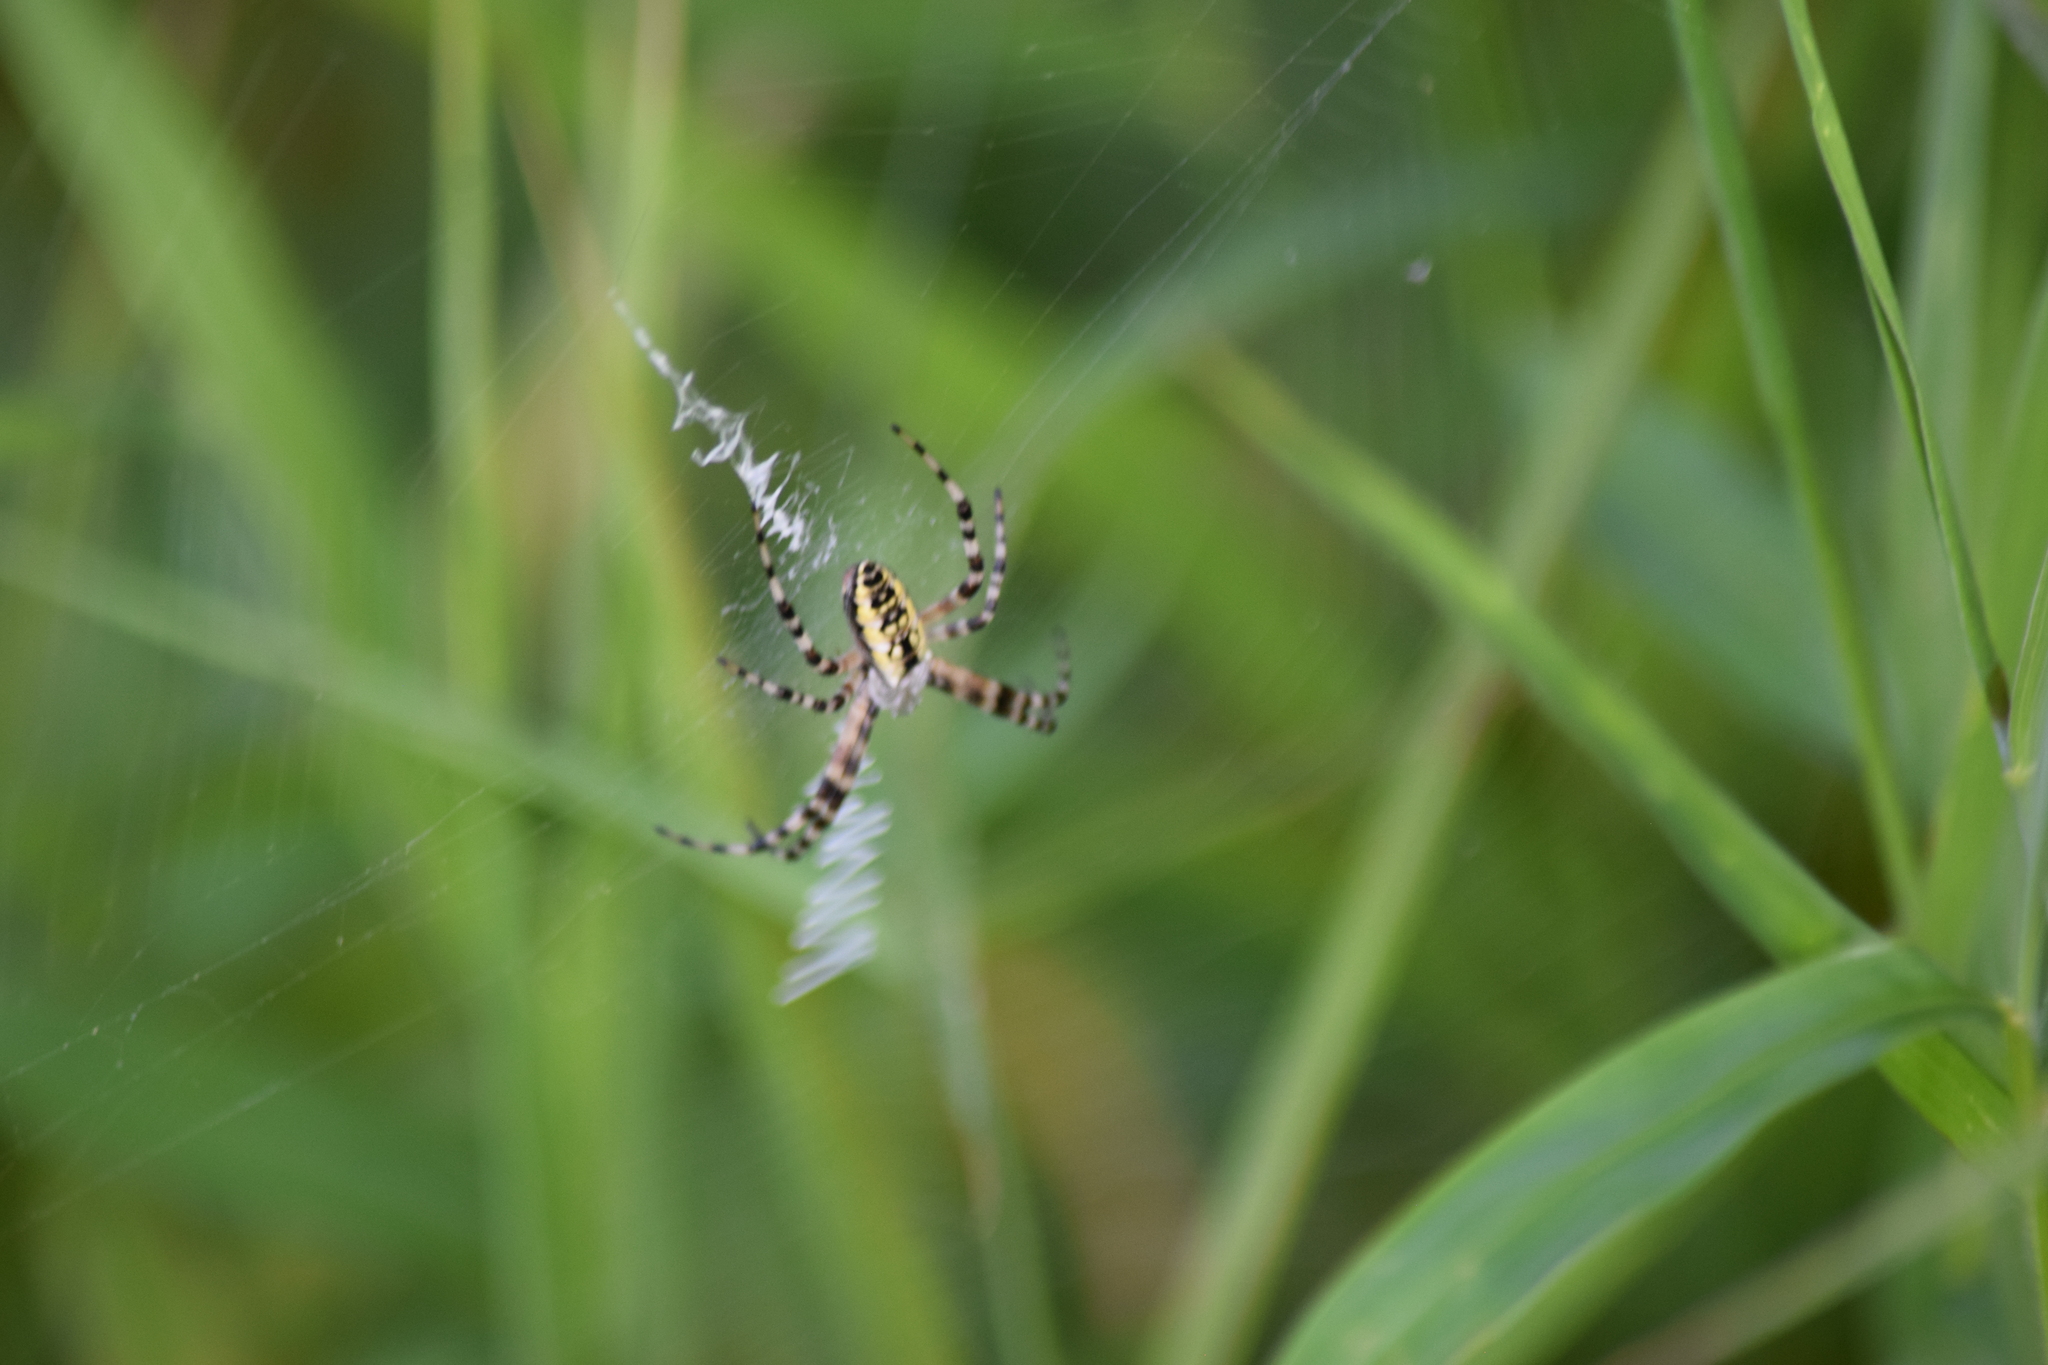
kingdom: Animalia
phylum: Arthropoda
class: Arachnida
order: Araneae
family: Araneidae
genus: Argiope
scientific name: Argiope aurantia
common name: Orb weavers
